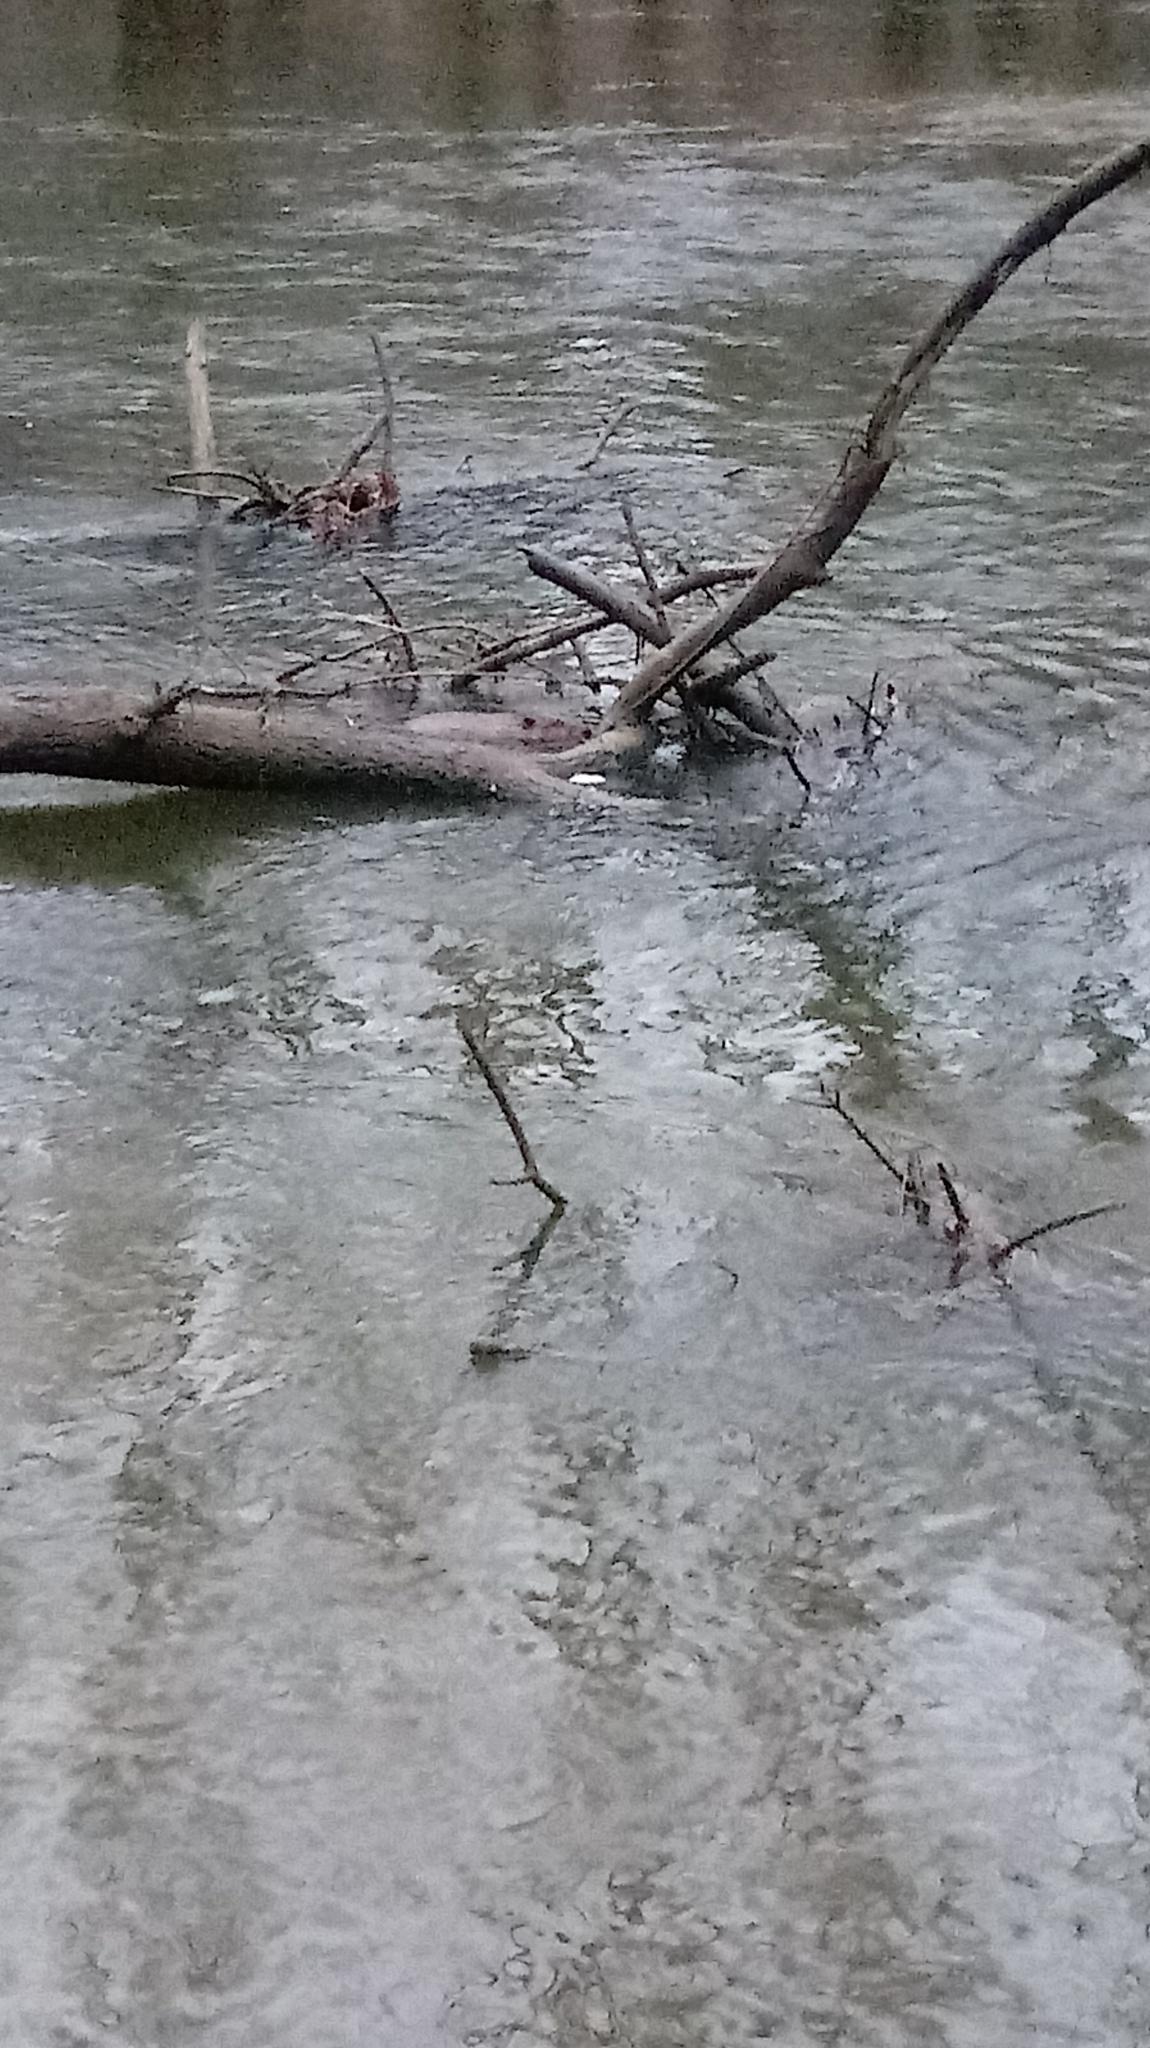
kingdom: Animalia
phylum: Chordata
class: Mammalia
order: Rodentia
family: Castoridae
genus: Castor
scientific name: Castor canadensis
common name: American beaver
